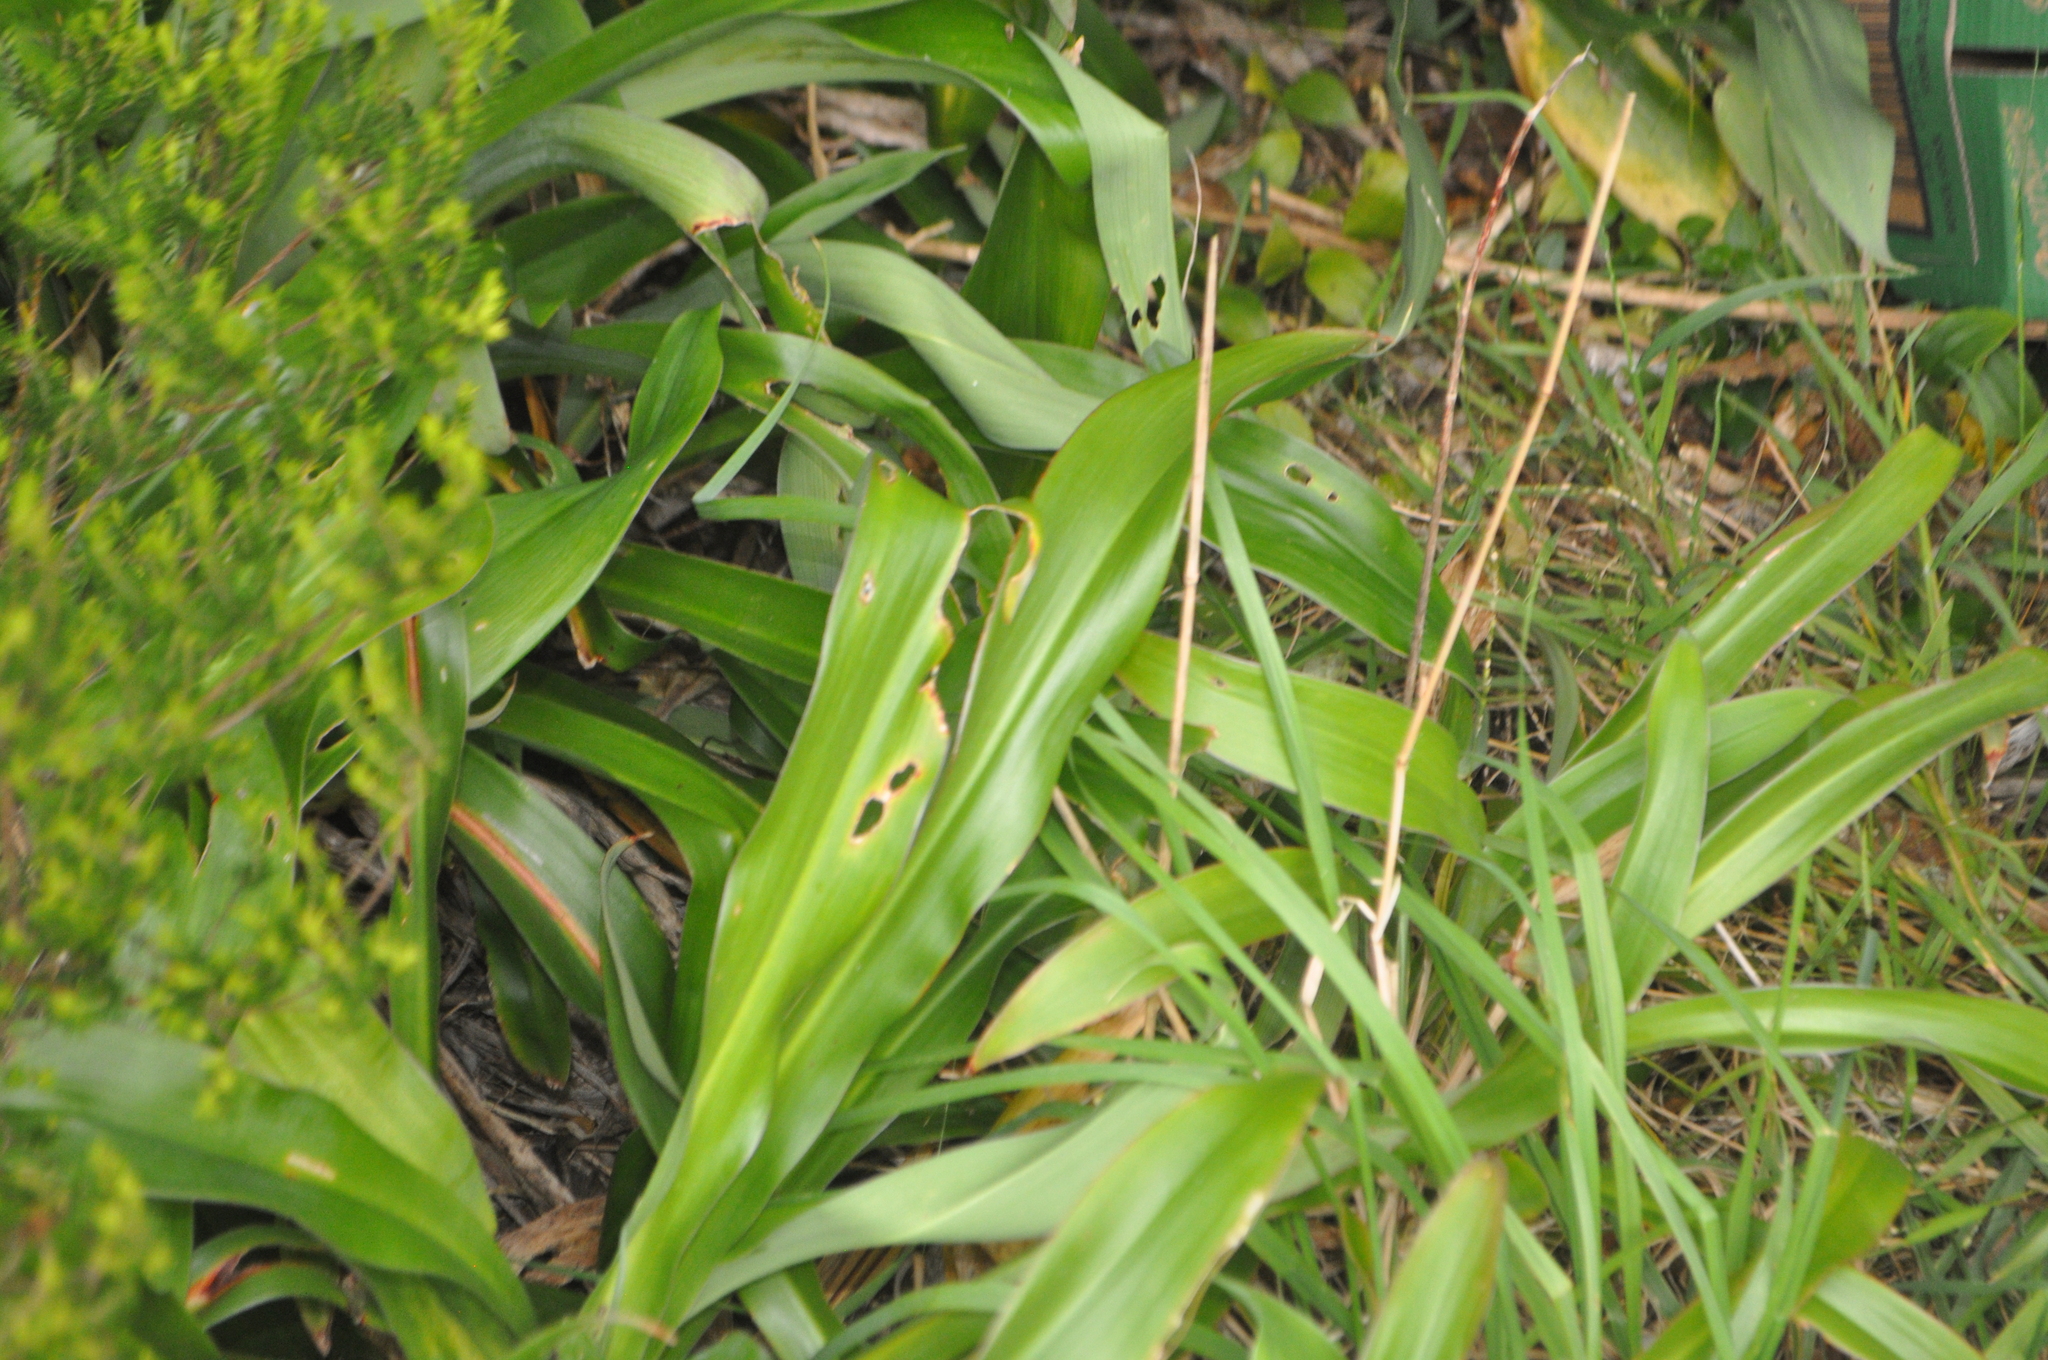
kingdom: Plantae
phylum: Tracheophyta
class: Liliopsida
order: Asparagales
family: Asparagaceae
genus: Arthropodium
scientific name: Arthropodium cirratum
